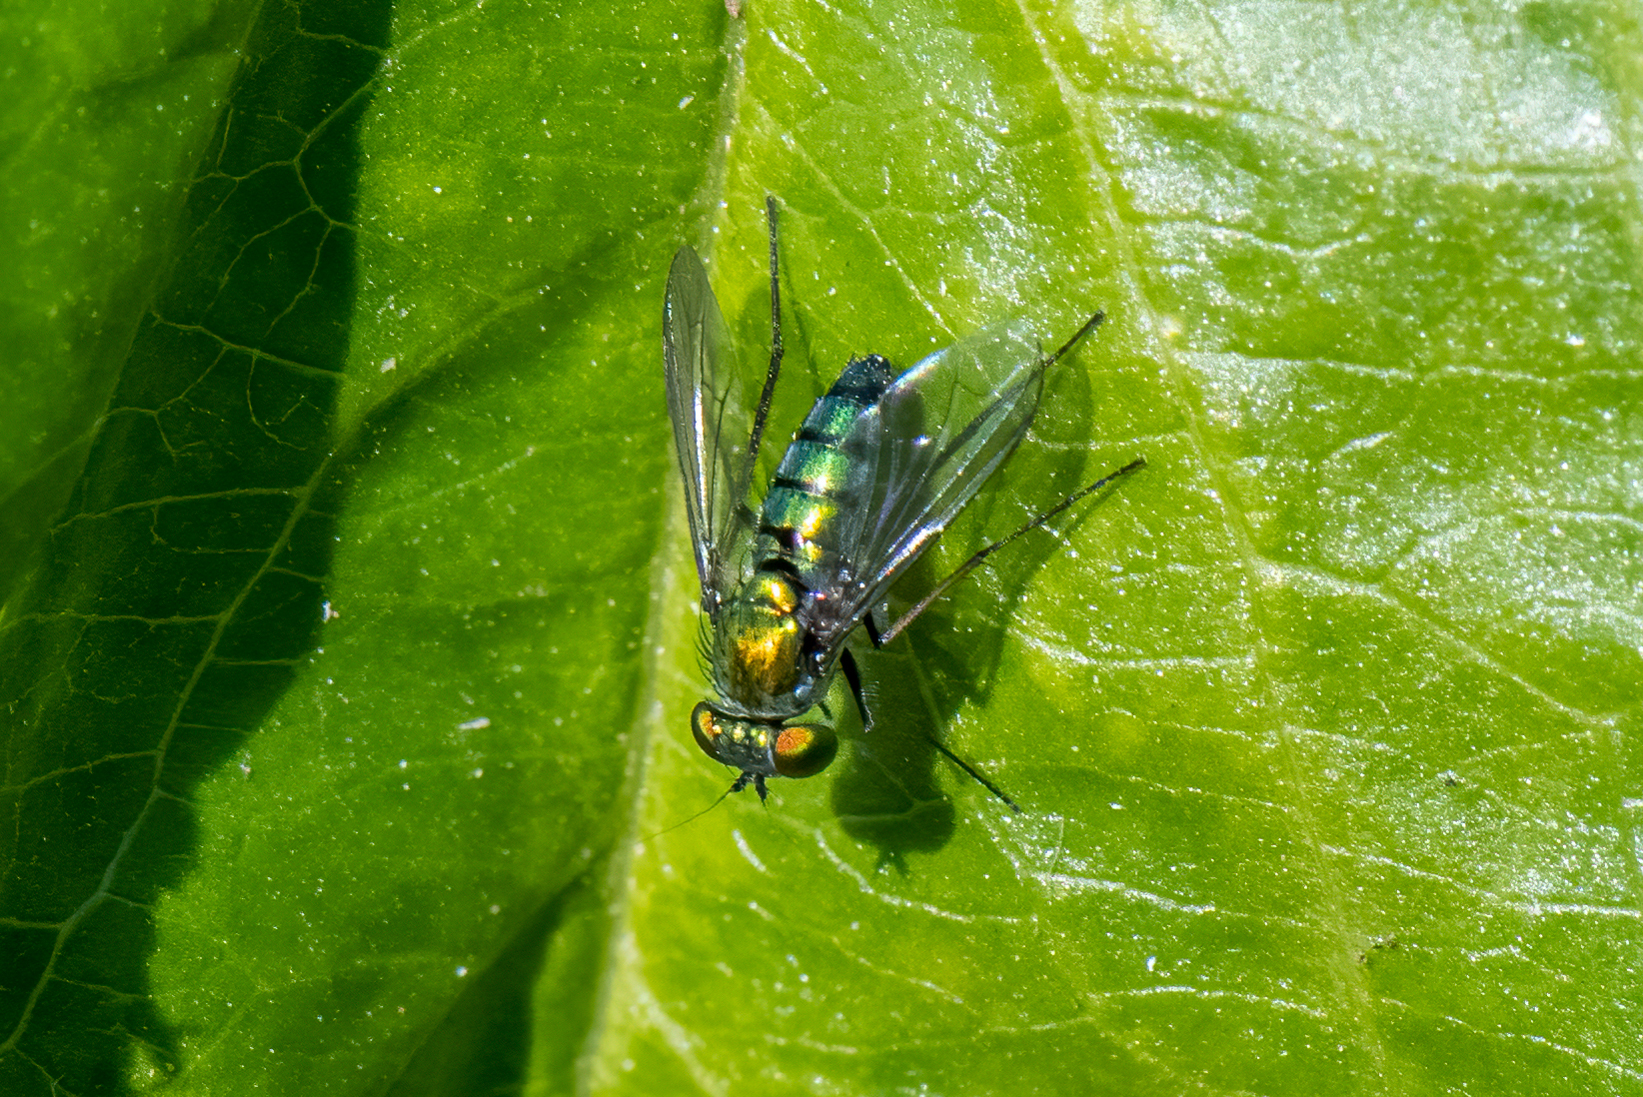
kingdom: Animalia
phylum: Arthropoda
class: Insecta
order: Diptera
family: Dolichopodidae
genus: Condylostylus
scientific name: Condylostylus longicornis
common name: Long-legged fly
